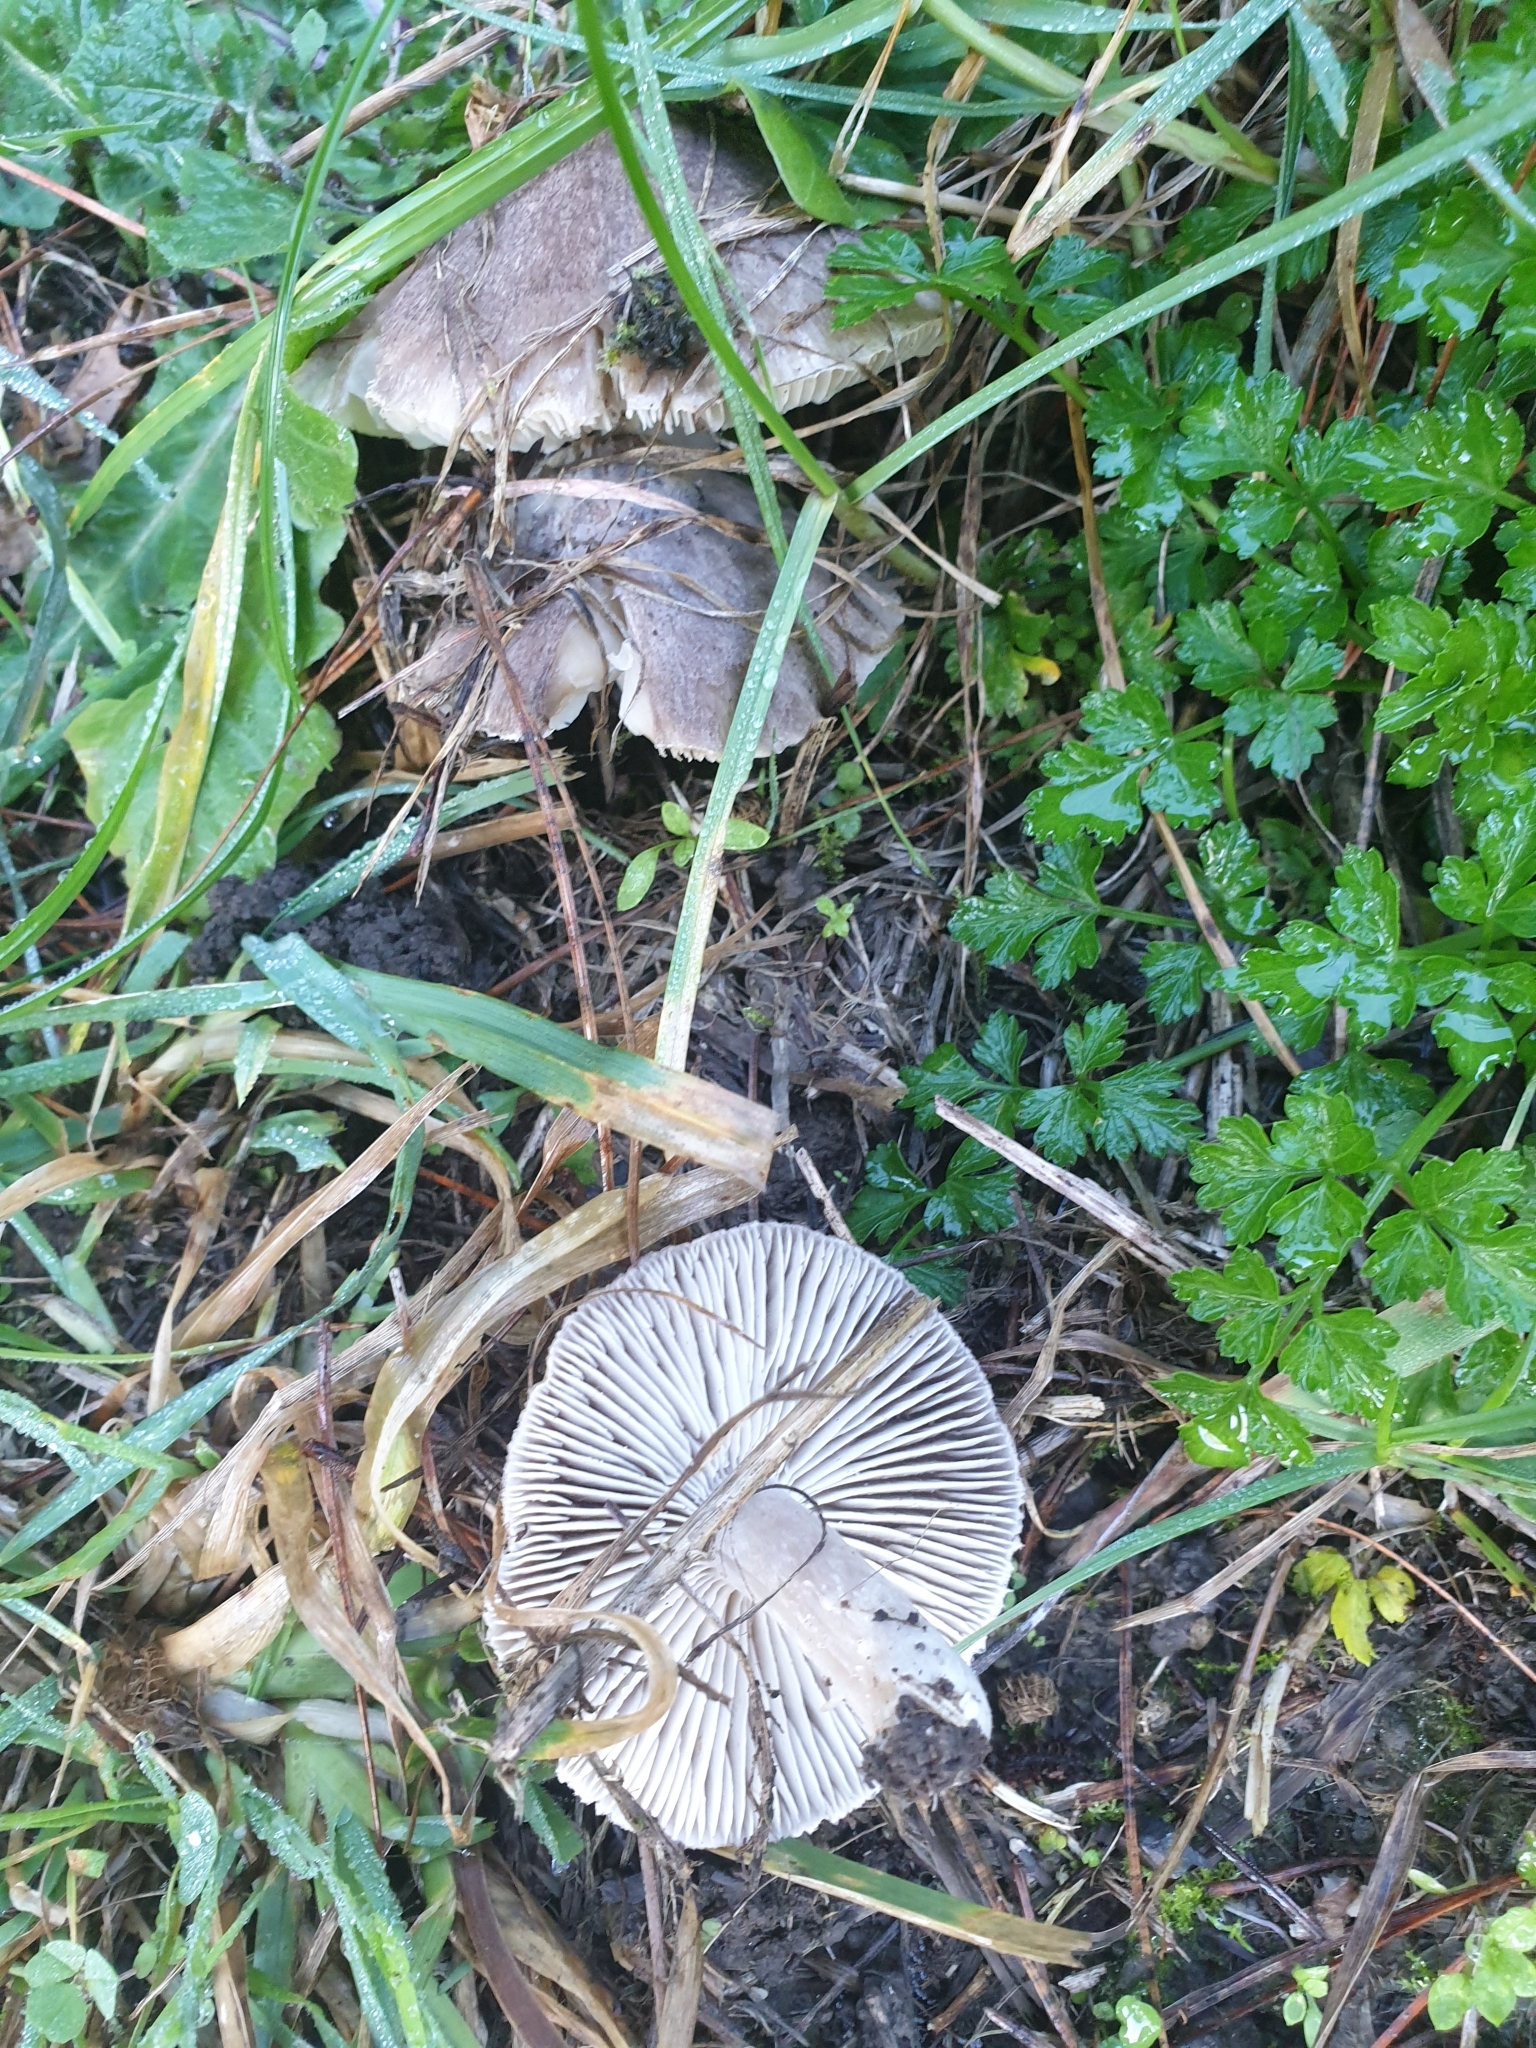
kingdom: Fungi
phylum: Basidiomycota
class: Agaricomycetes
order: Agaricales
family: Tricholomataceae
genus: Tricholoma
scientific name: Tricholoma terreum
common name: Grey knight
